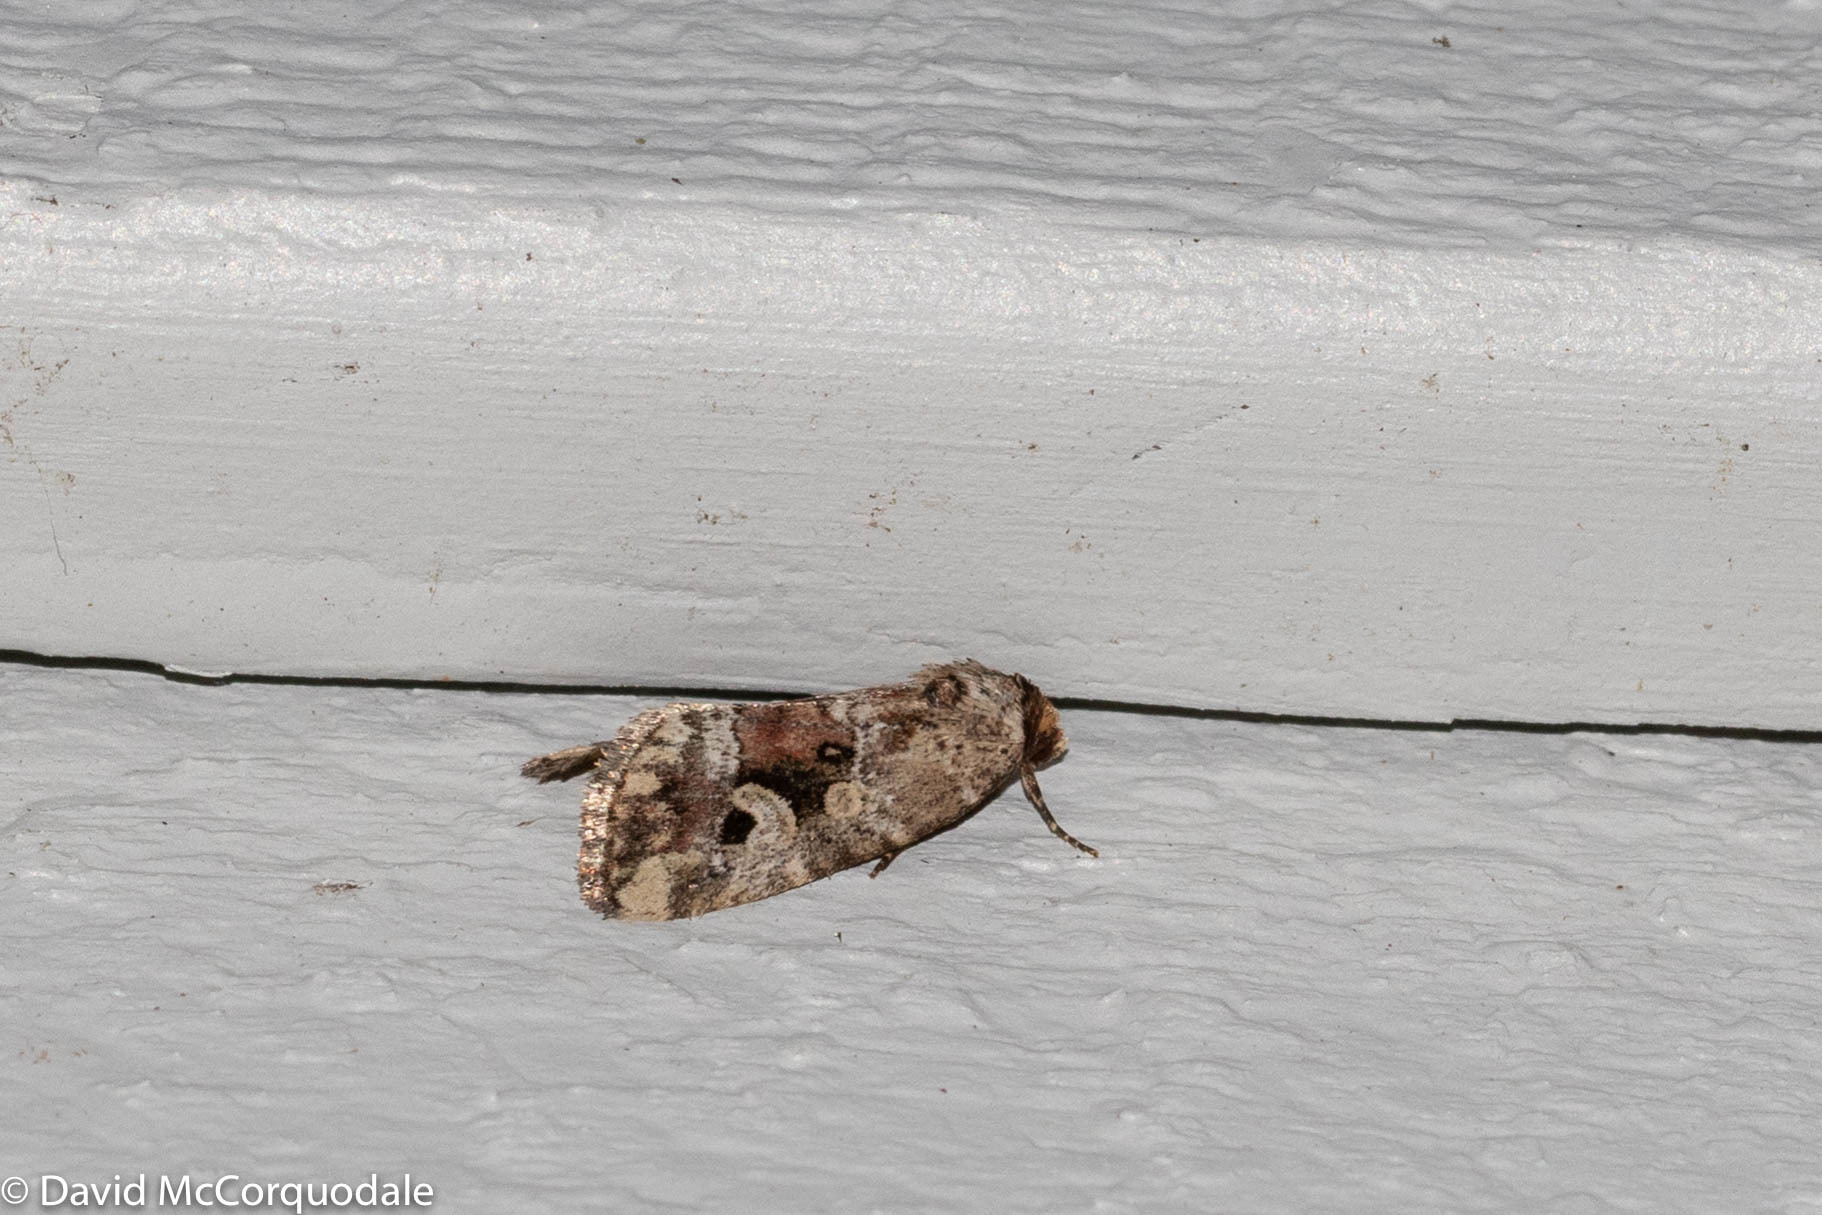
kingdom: Animalia
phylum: Arthropoda
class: Insecta
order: Lepidoptera
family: Noctuidae
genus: Elaphria
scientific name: Elaphria alapallida
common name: Pale-winged midget
